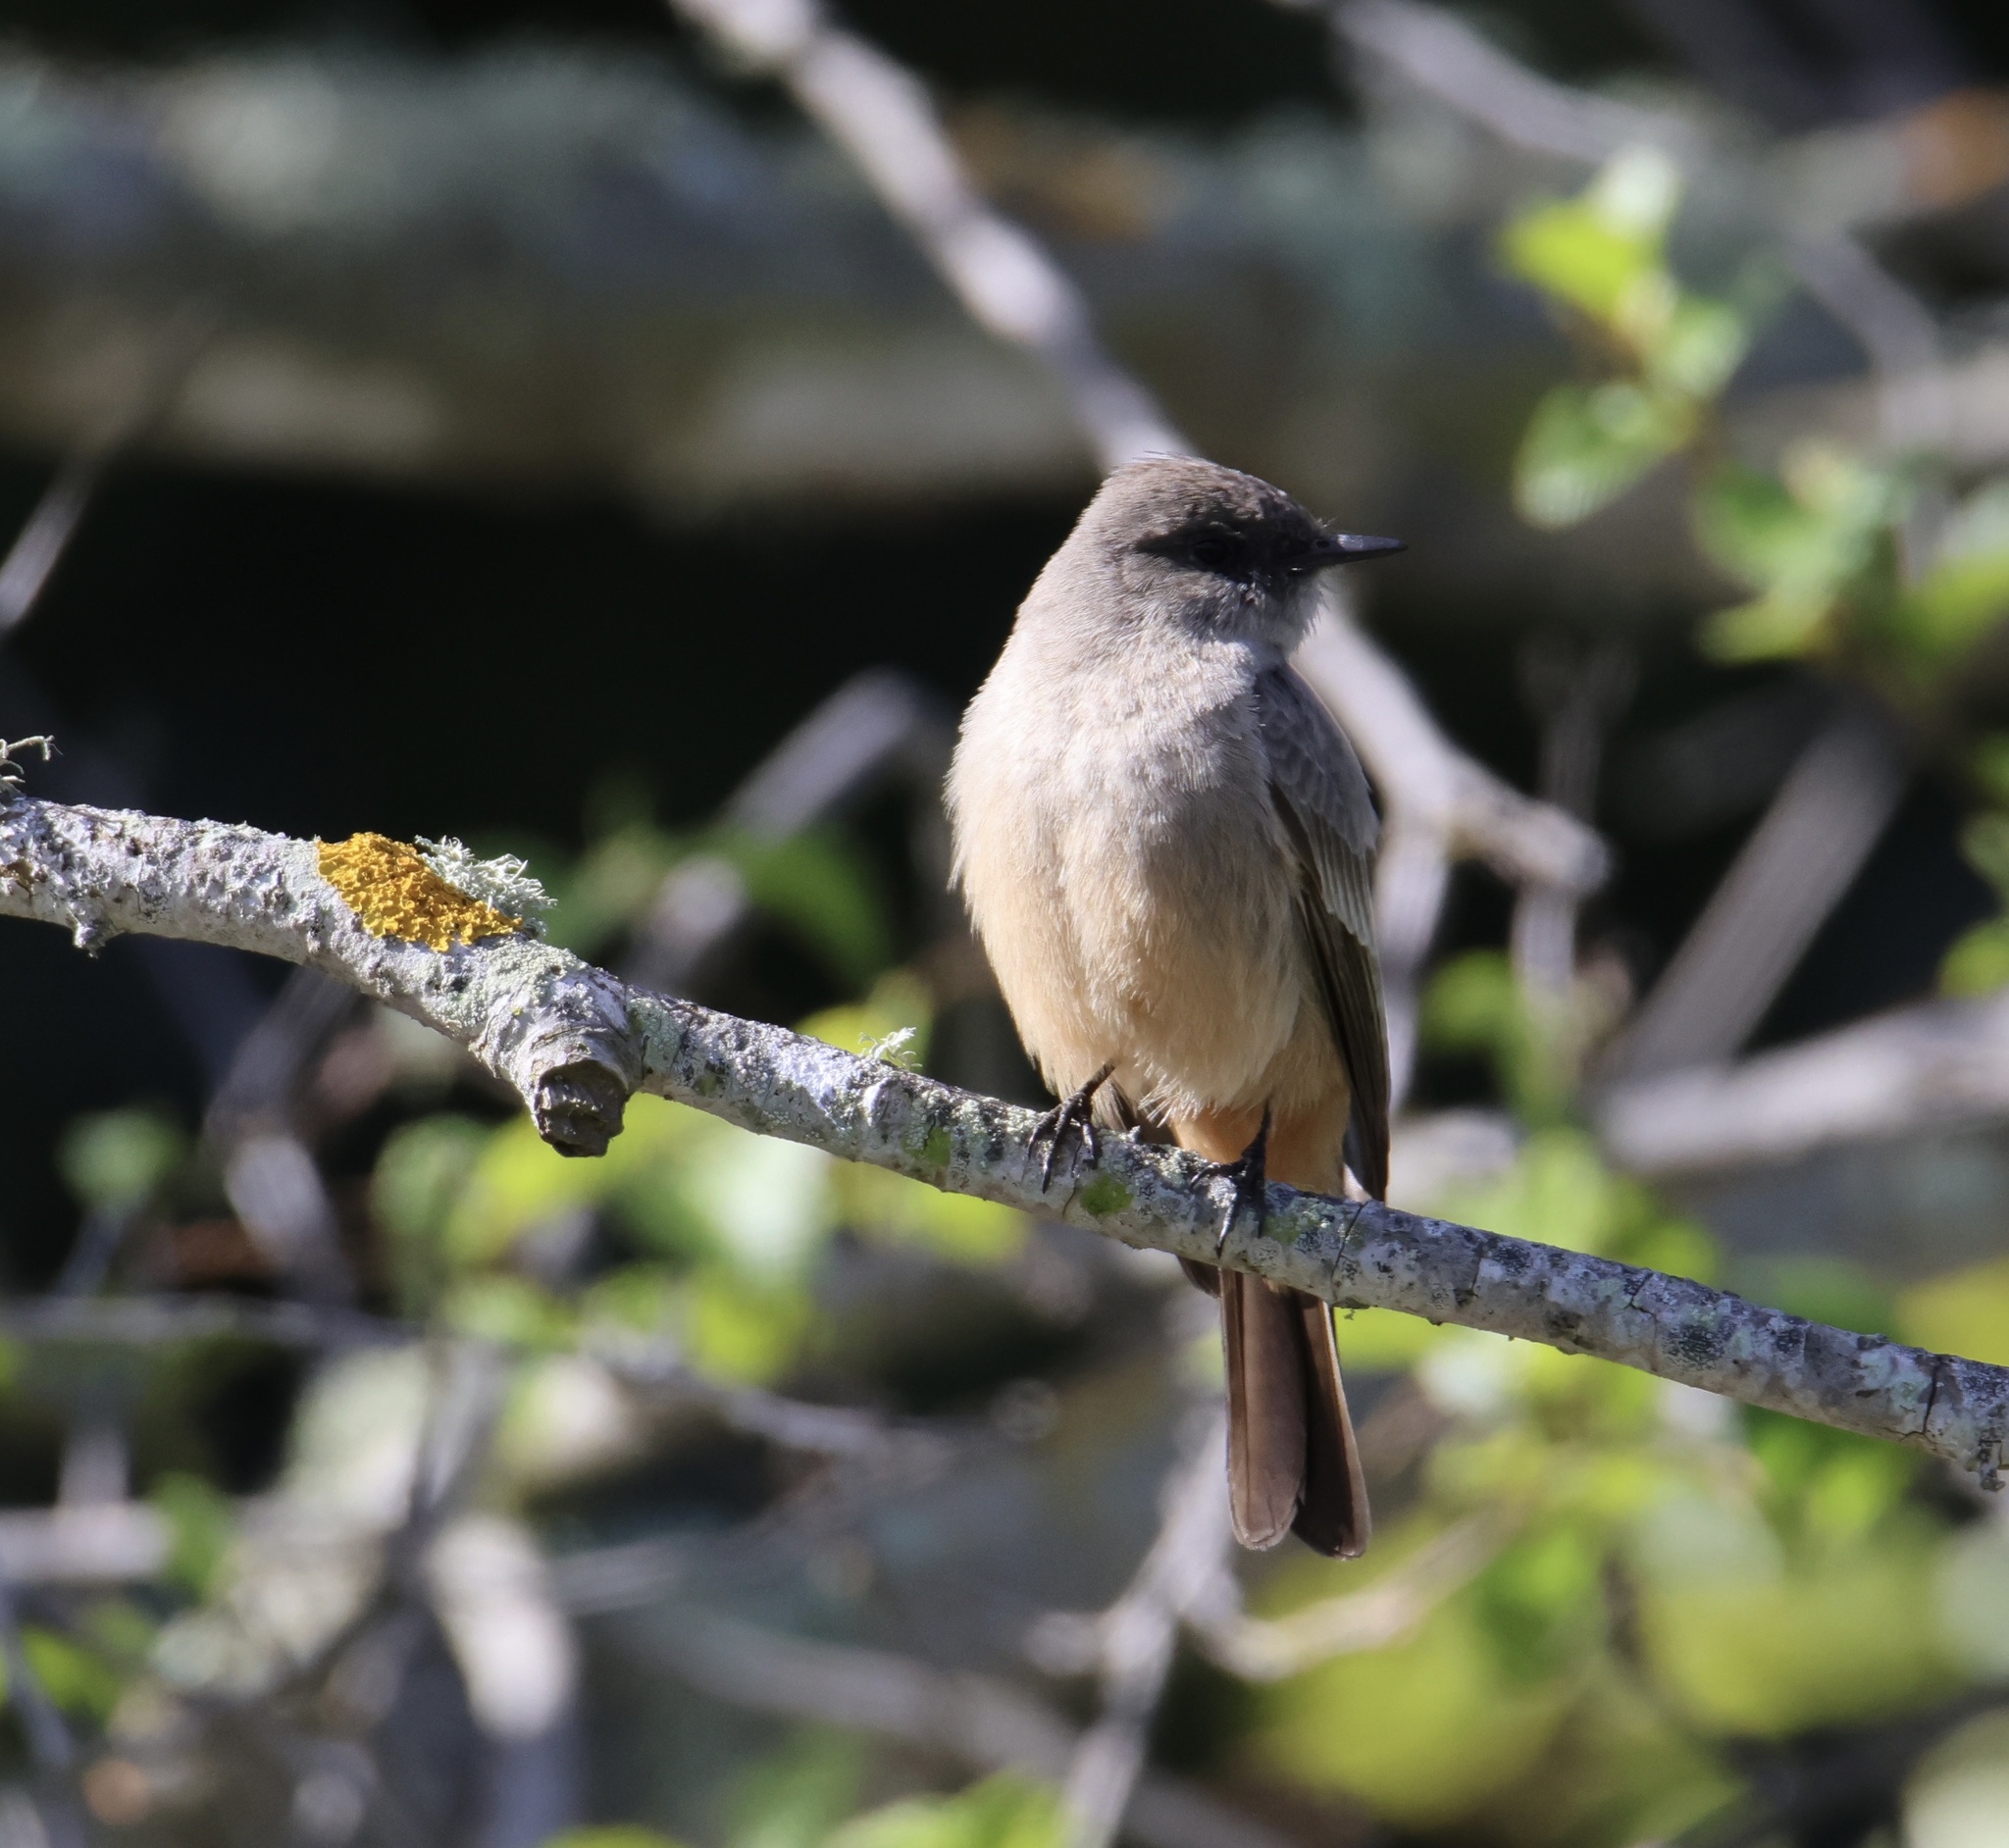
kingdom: Animalia
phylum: Chordata
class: Aves
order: Passeriformes
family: Tyrannidae
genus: Sayornis
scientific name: Sayornis saya
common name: Say's phoebe
